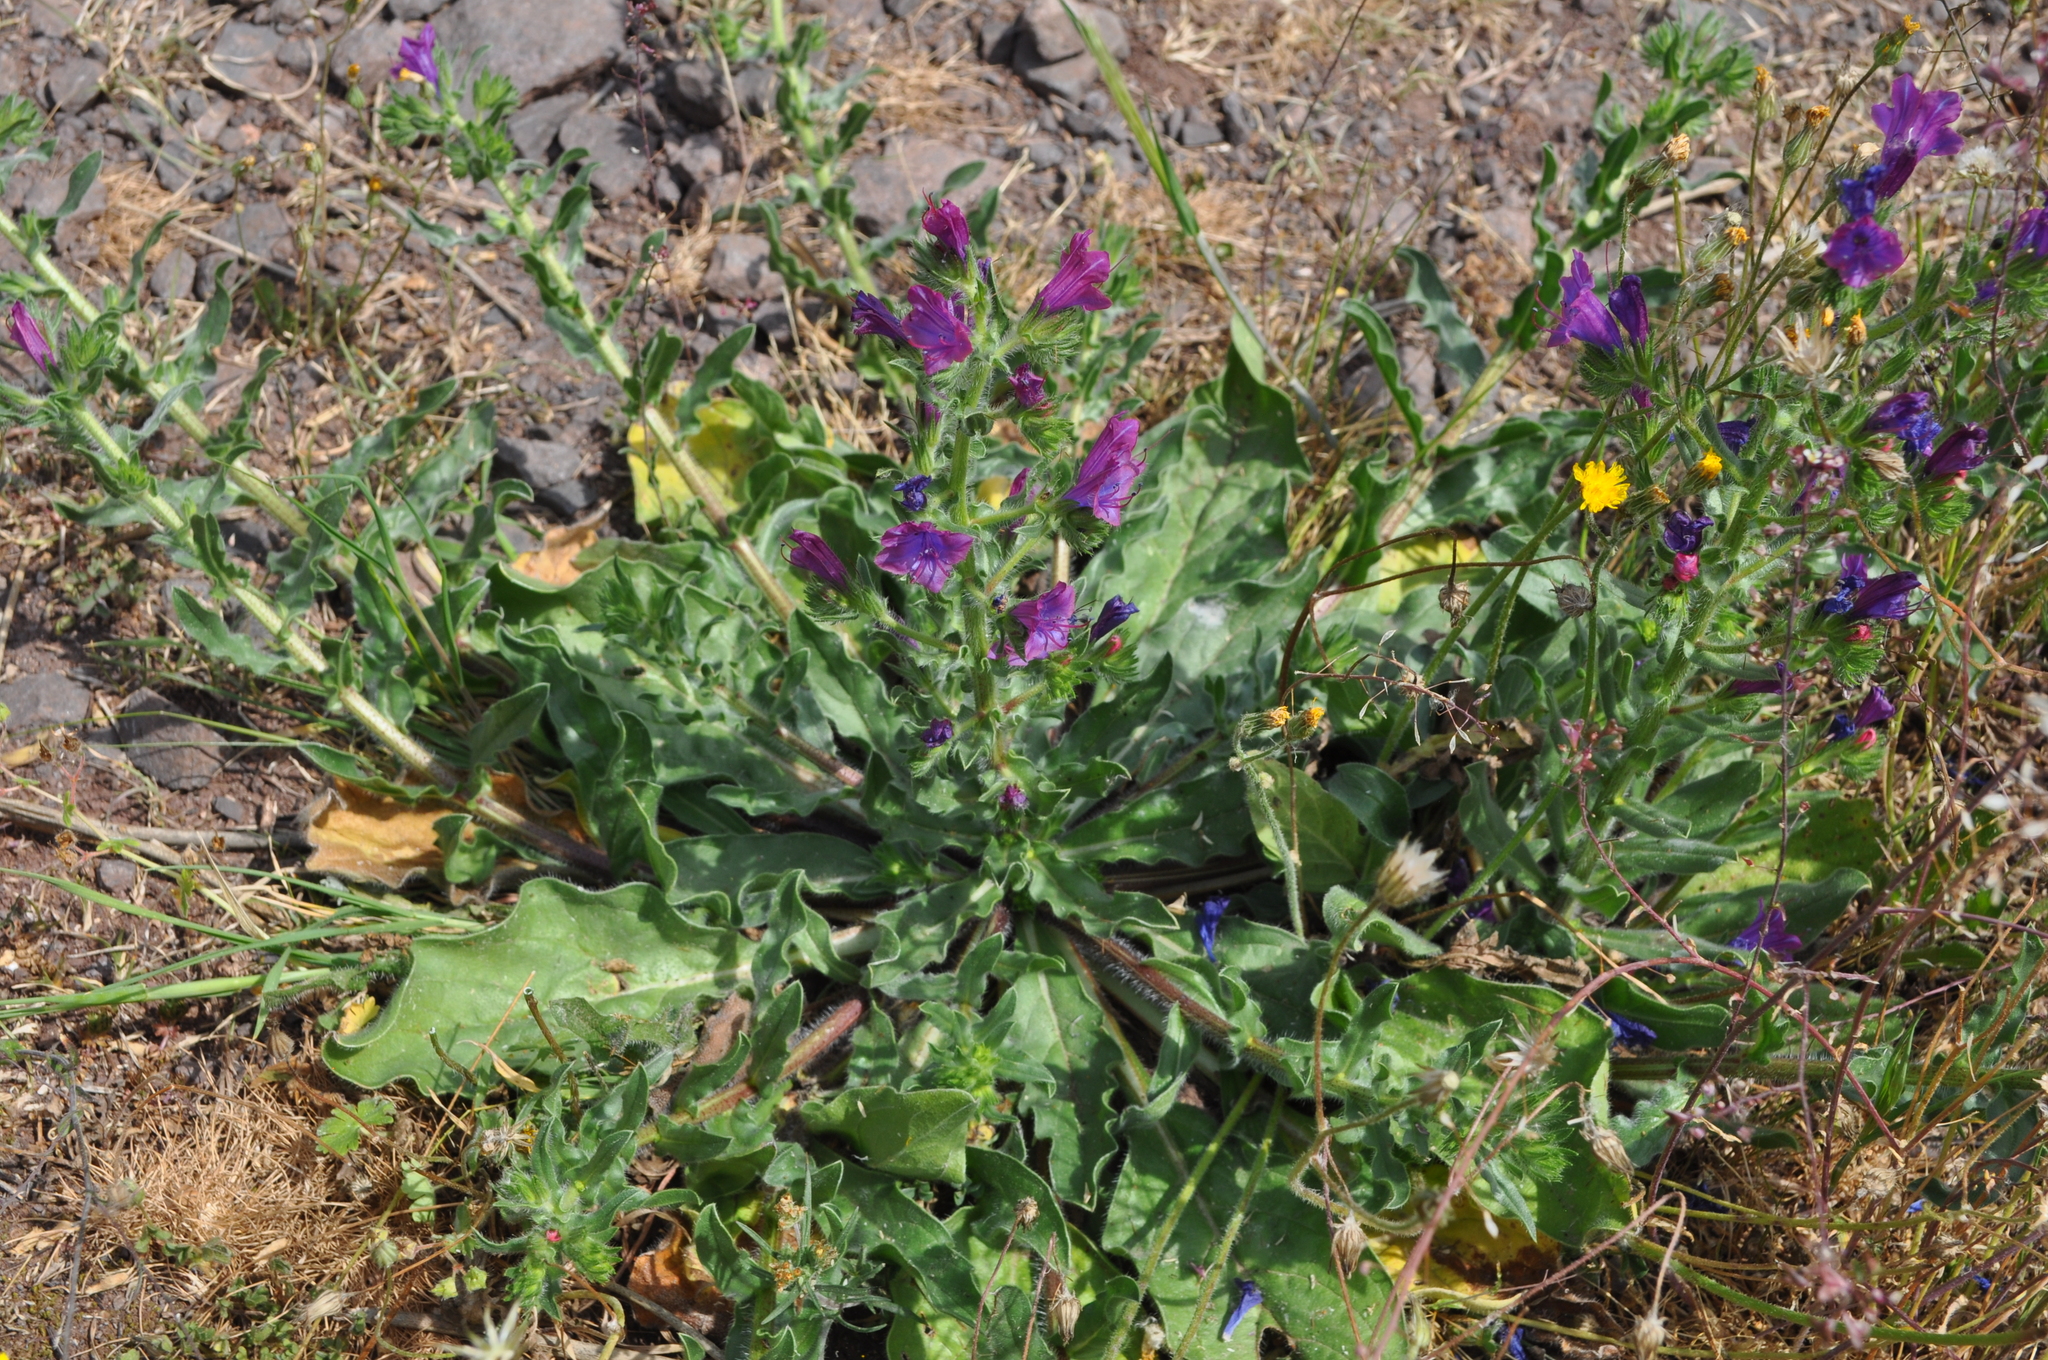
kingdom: Plantae
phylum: Tracheophyta
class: Magnoliopsida
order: Boraginales
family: Boraginaceae
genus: Echium
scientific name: Echium plantagineum
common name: Purple viper's-bugloss
